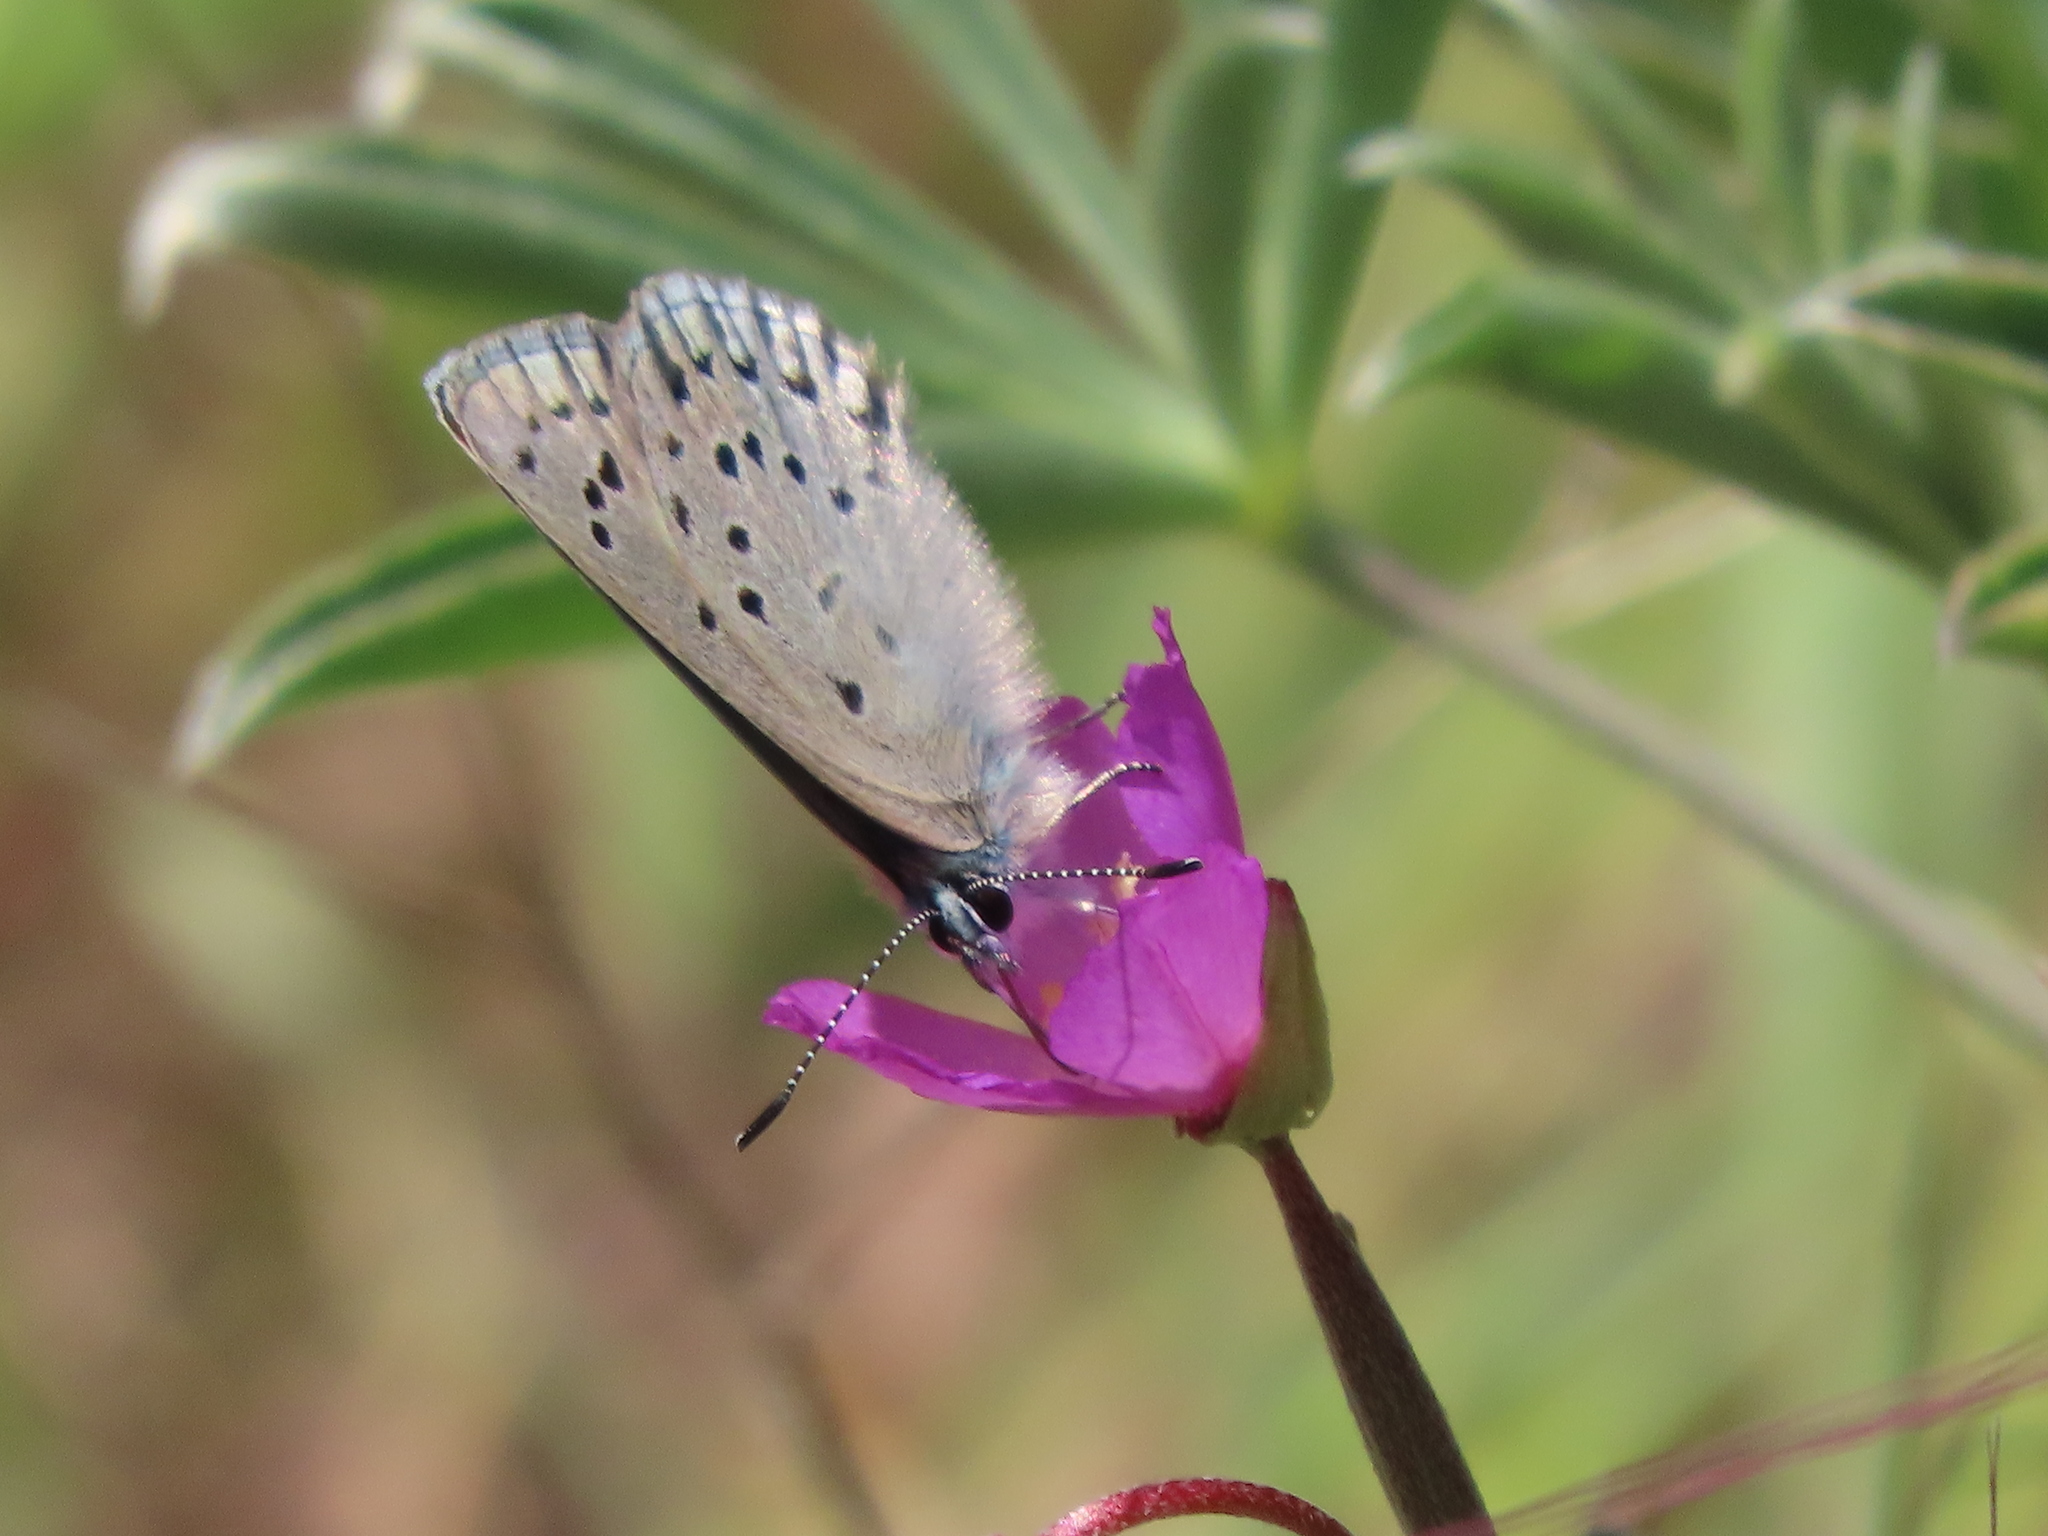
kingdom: Animalia
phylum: Arthropoda
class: Insecta
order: Lepidoptera
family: Lycaenidae
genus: Icaricia
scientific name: Icaricia icarioides
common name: Boisduval's blue
